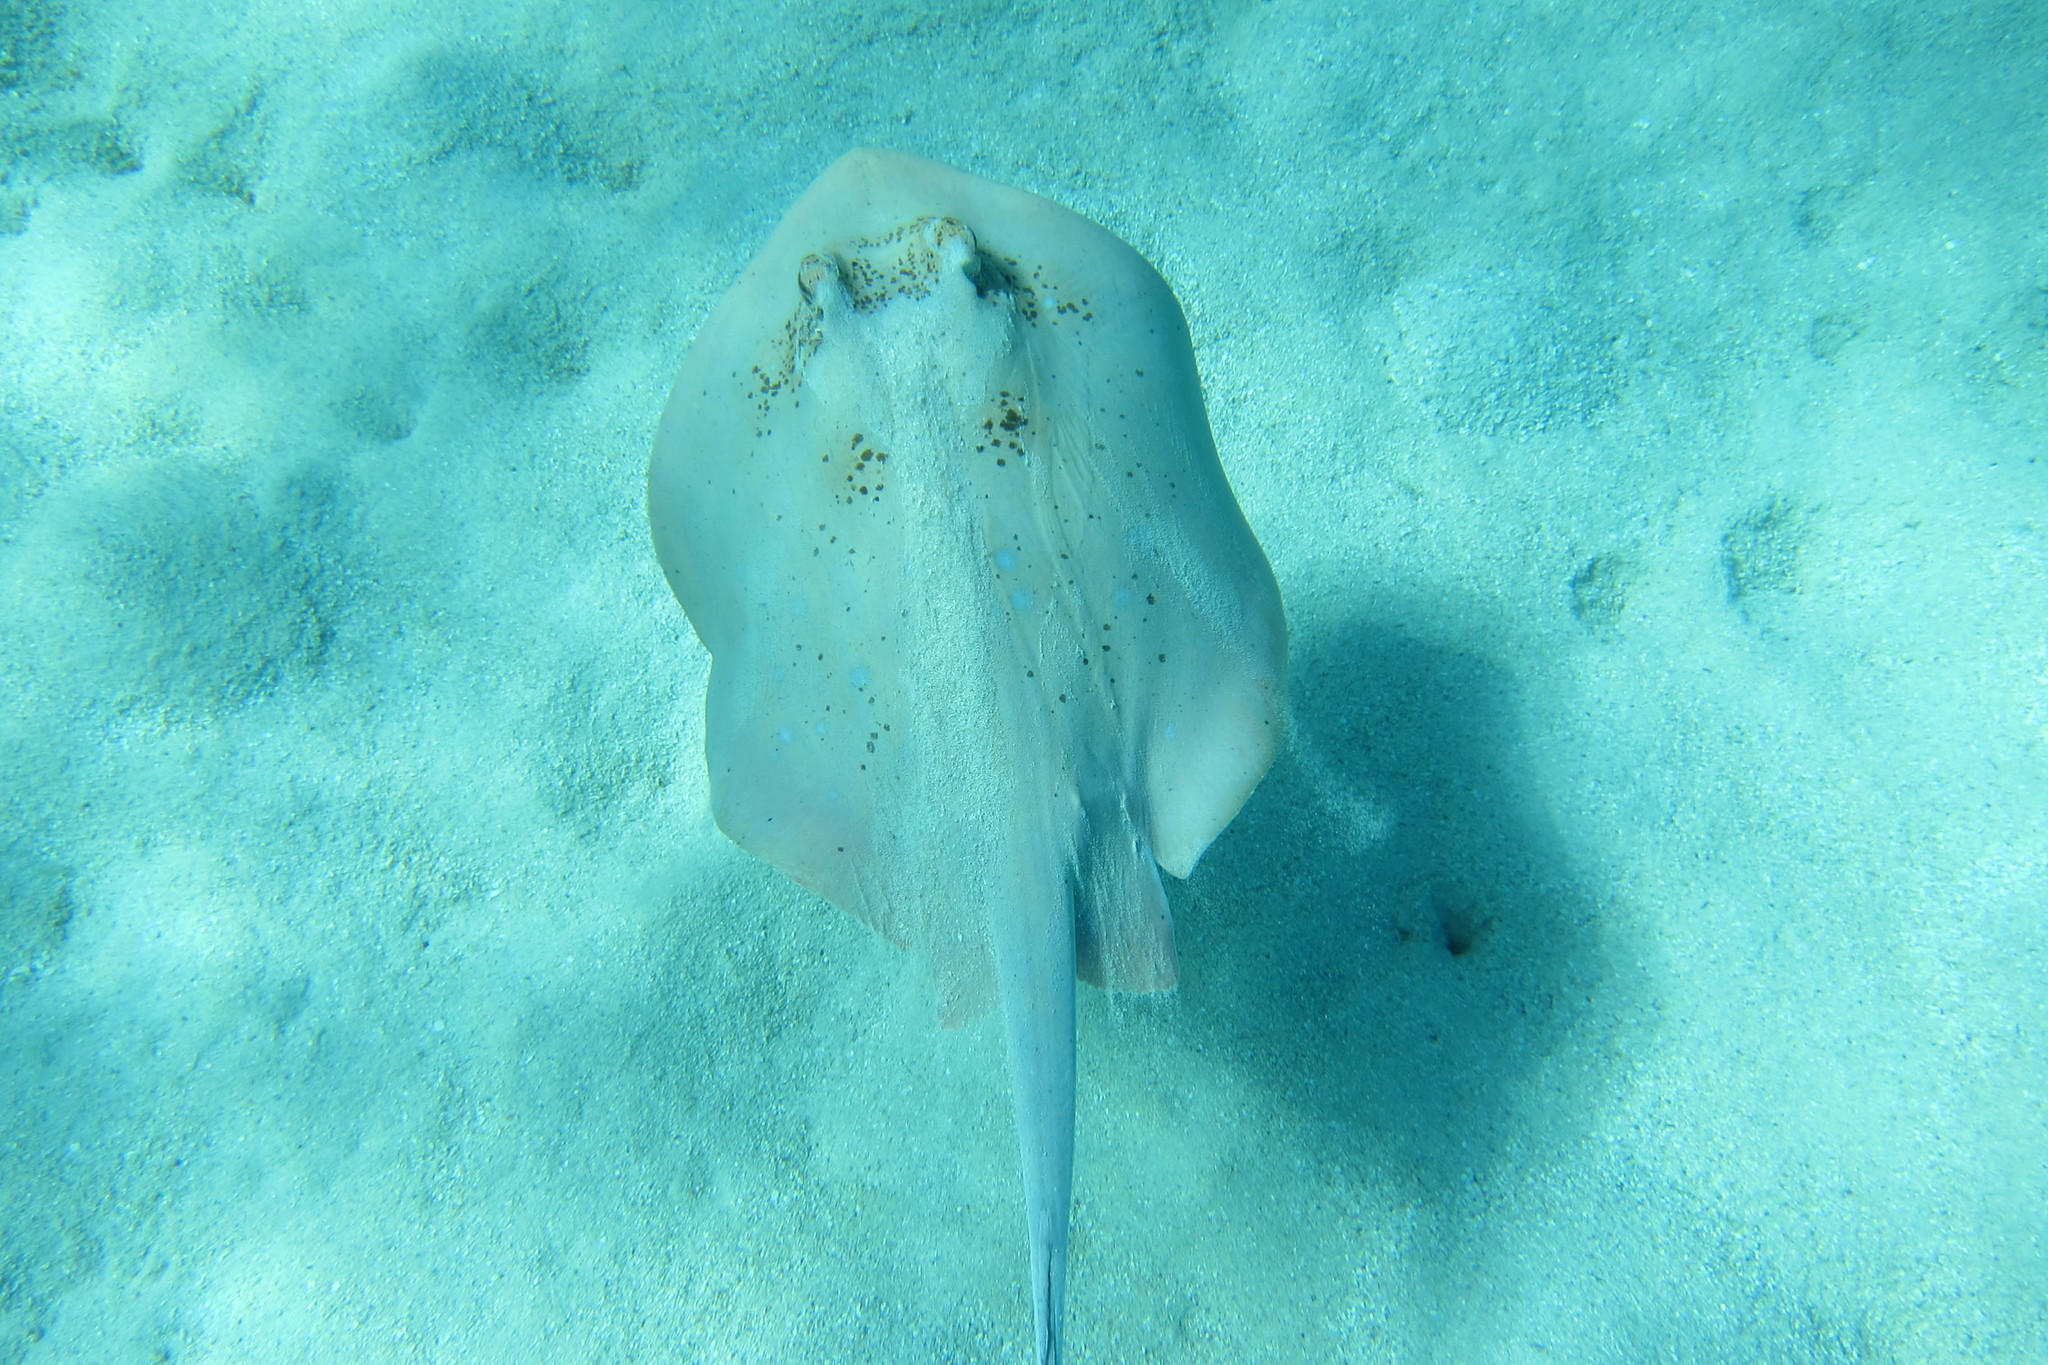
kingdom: Animalia
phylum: Chordata
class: Elasmobranchii
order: Myliobatiformes
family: Dasyatidae
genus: Neotrygon
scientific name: Neotrygon kuhlii
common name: Bluespotted stingray
